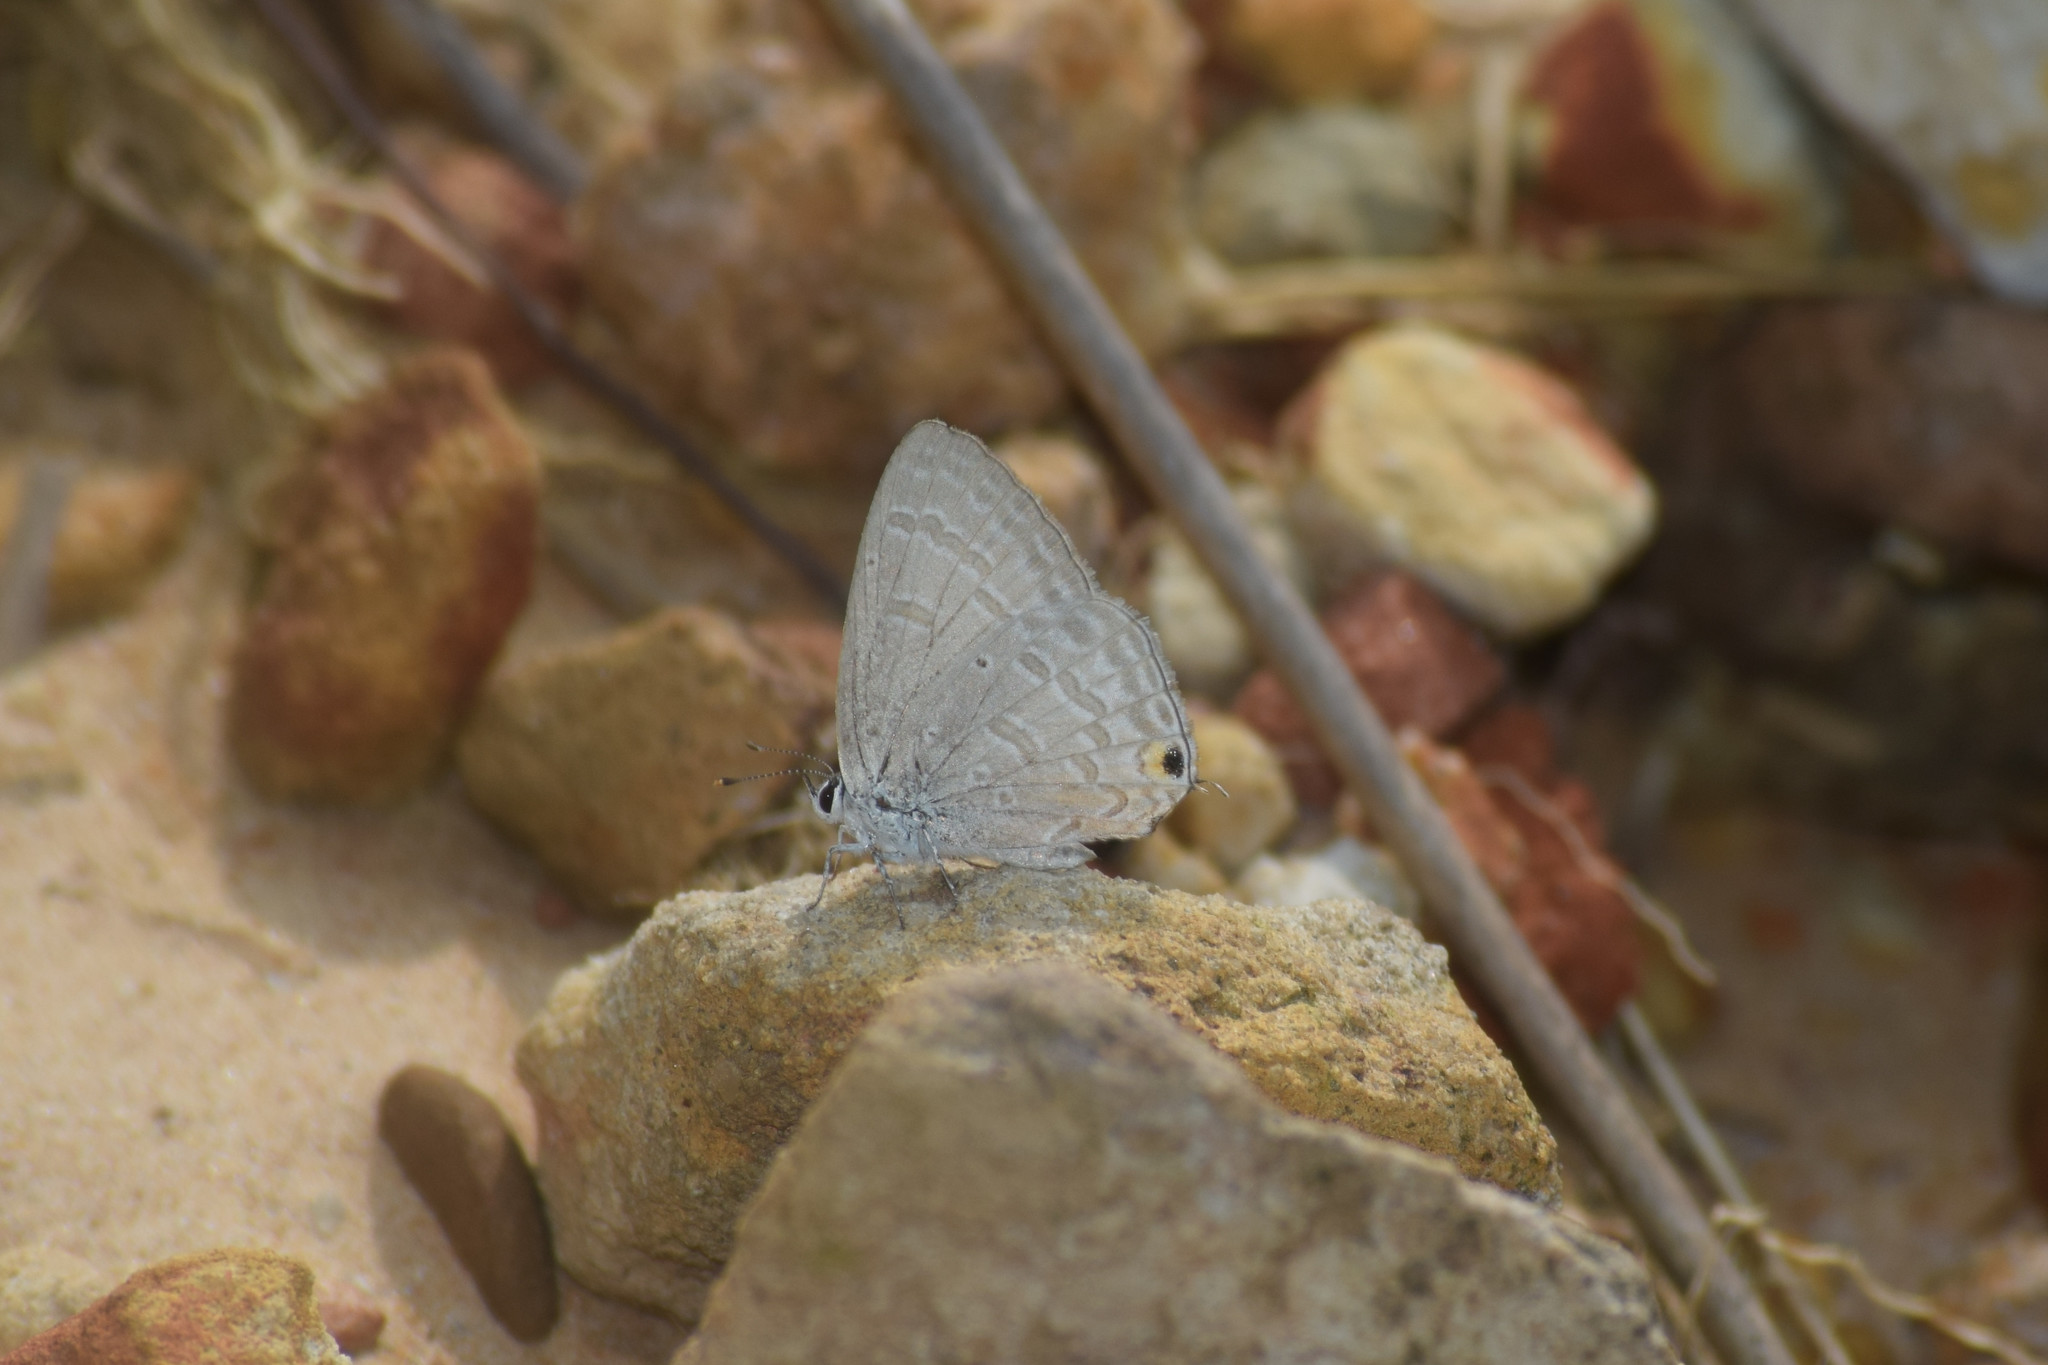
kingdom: Animalia
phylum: Arthropoda
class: Insecta
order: Lepidoptera
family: Lycaenidae
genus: Catochrysops
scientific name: Catochrysops strabo
